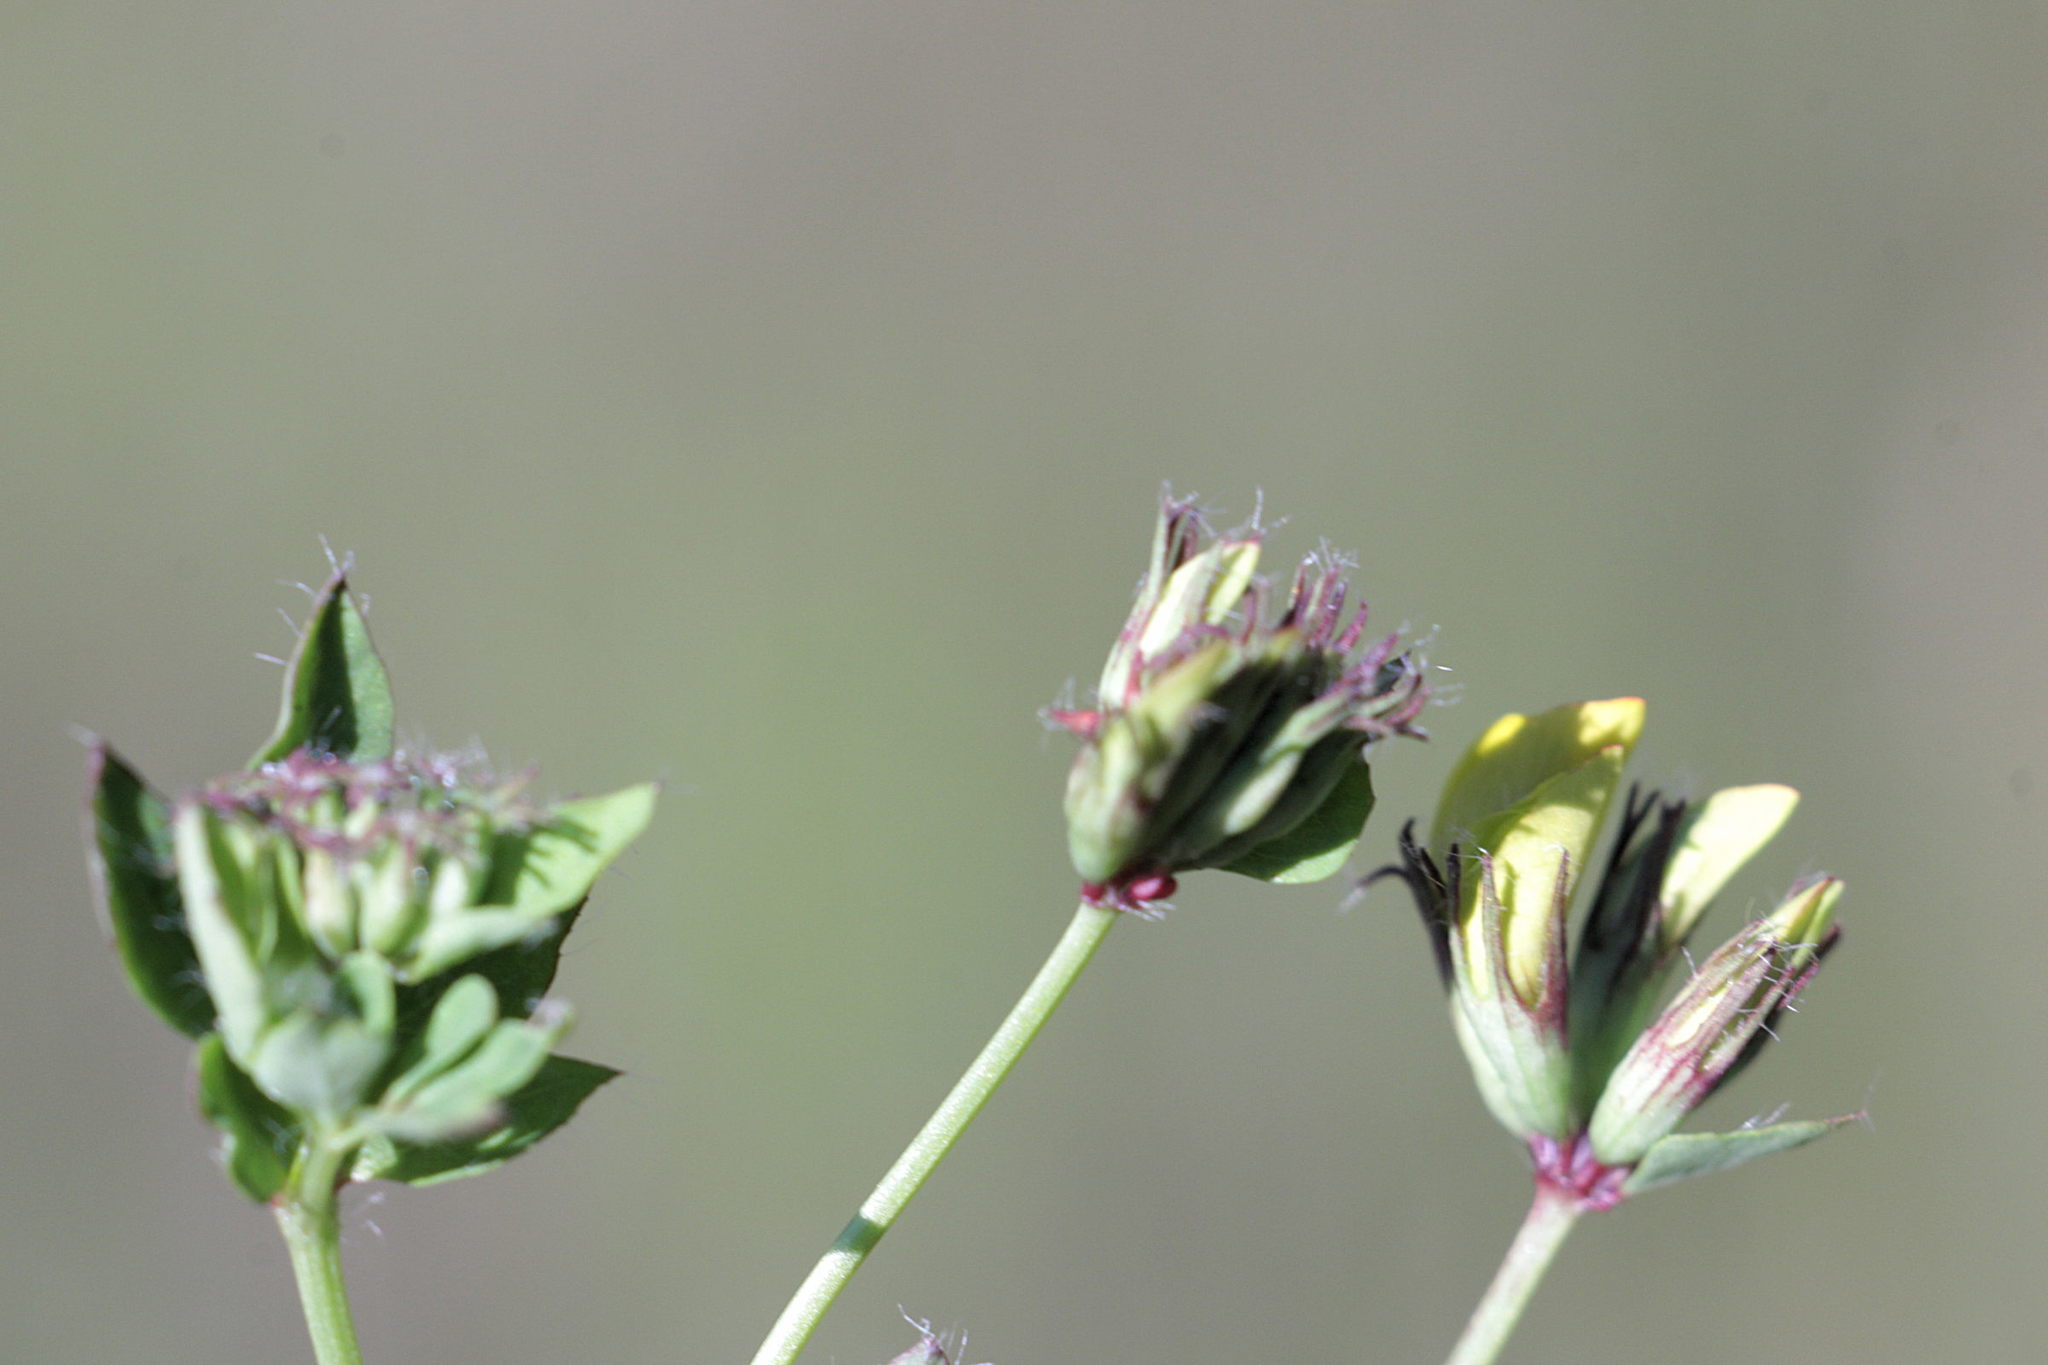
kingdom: Plantae
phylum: Tracheophyta
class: Magnoliopsida
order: Fabales
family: Fabaceae
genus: Lotus
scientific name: Lotus pedunculatus
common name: Greater birdsfoot-trefoil
